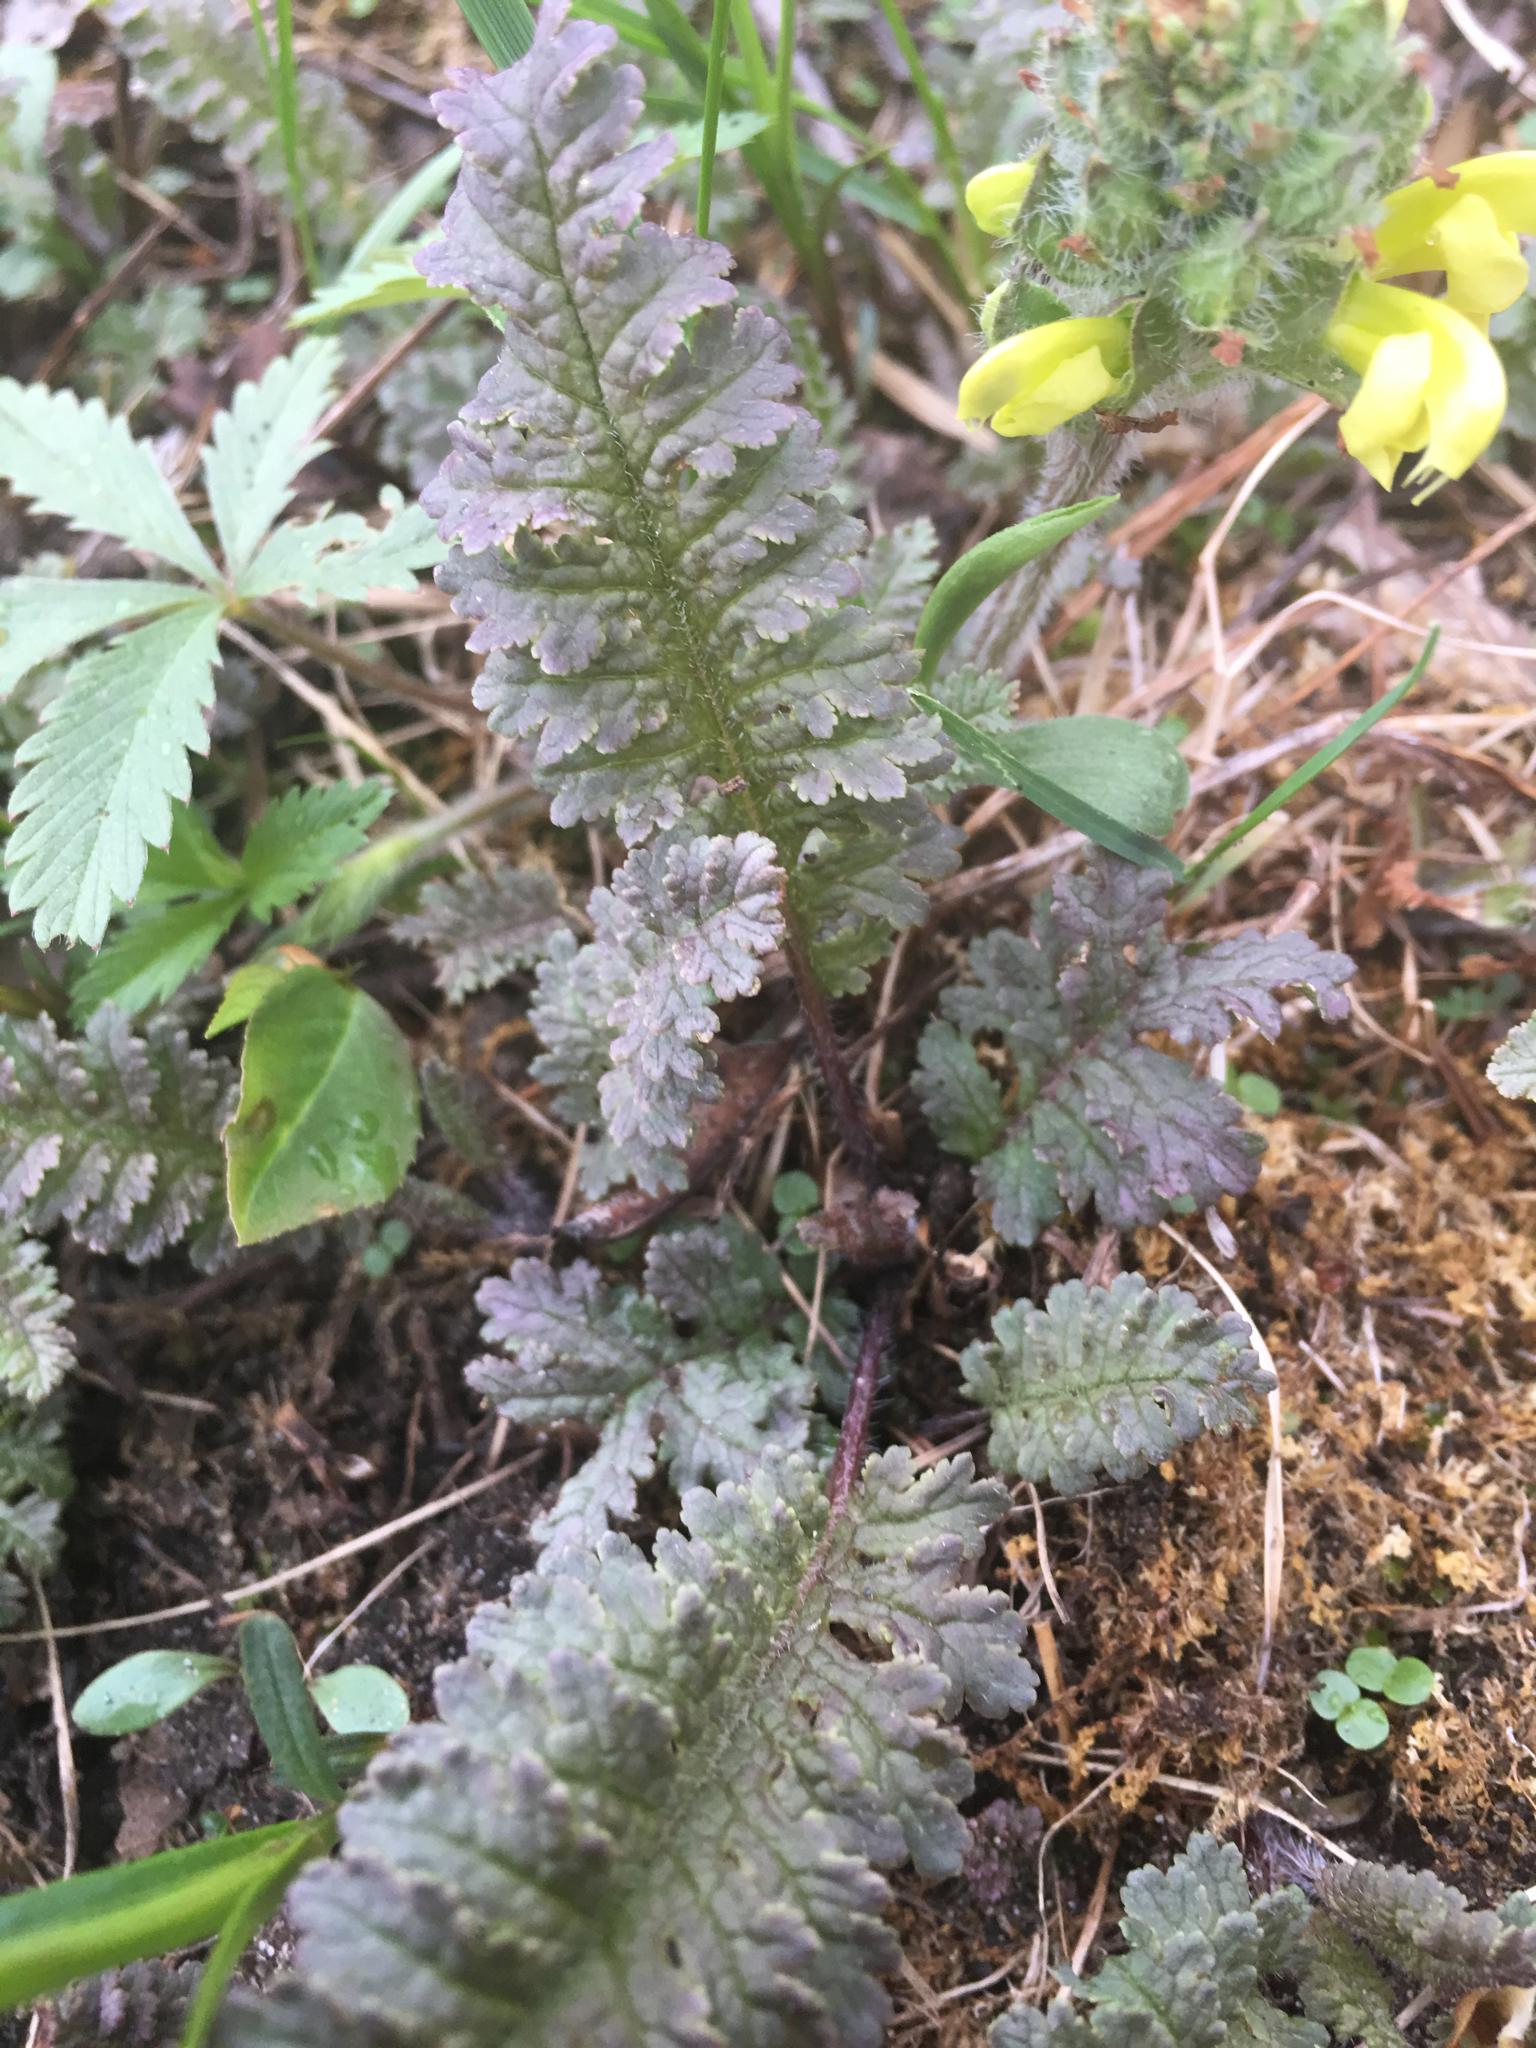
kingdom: Plantae
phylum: Tracheophyta
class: Magnoliopsida
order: Lamiales
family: Orobanchaceae
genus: Pedicularis
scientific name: Pedicularis canadensis
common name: Early lousewort
